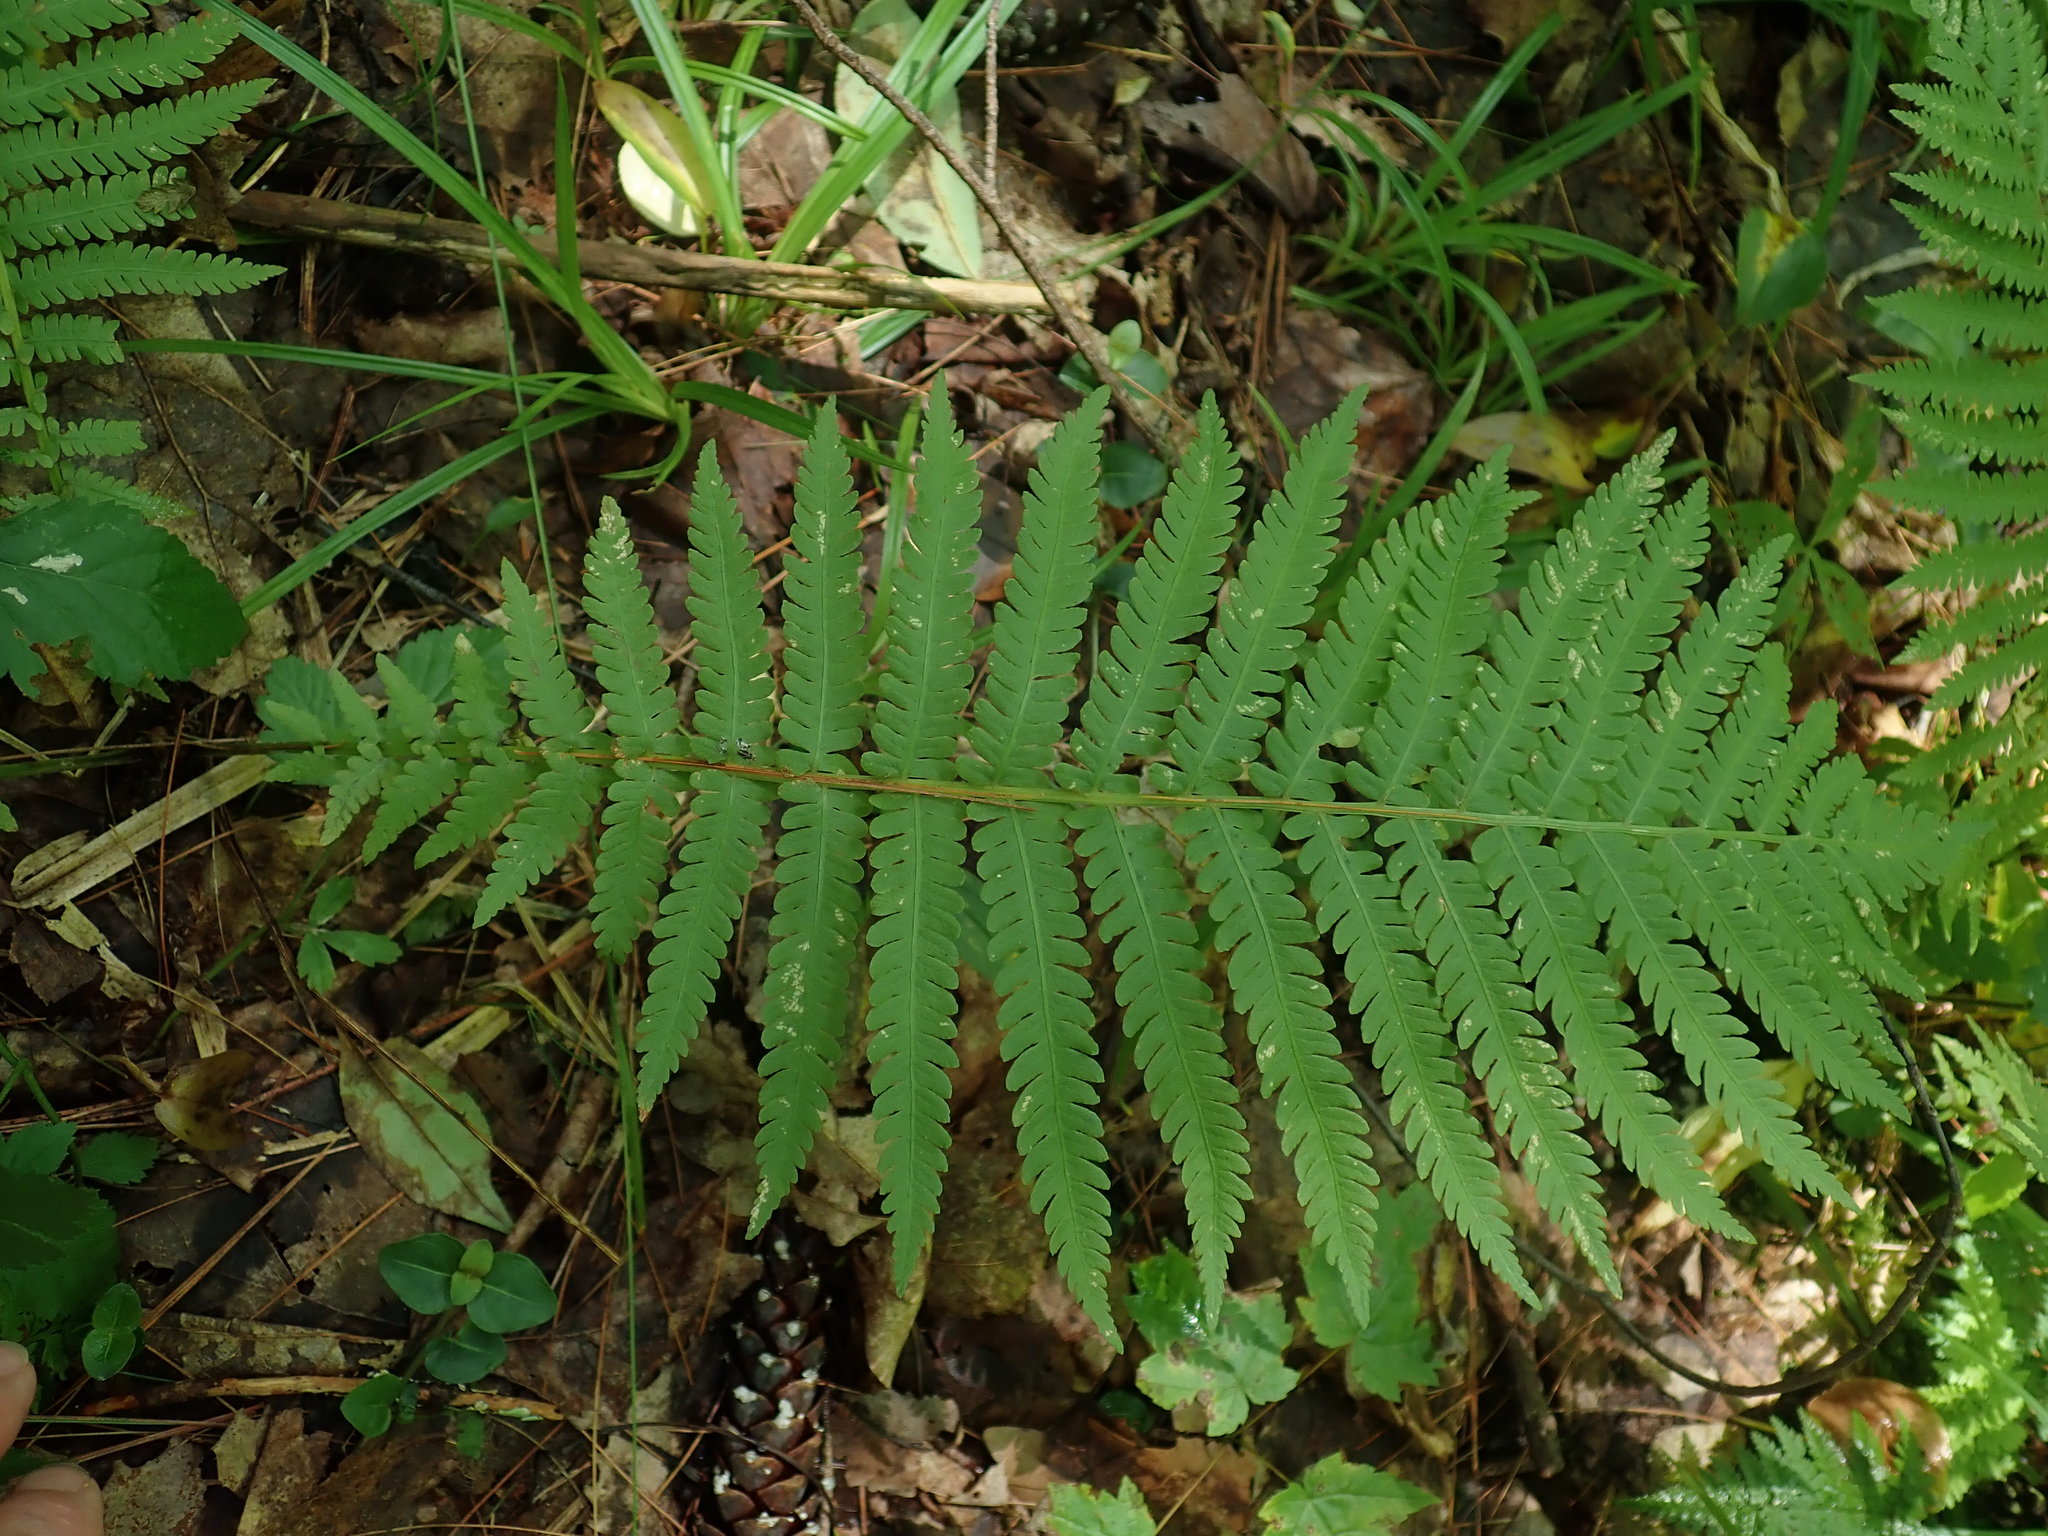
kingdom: Plantae
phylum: Tracheophyta
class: Polypodiopsida
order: Polypodiales
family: Thelypteridaceae
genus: Amauropelta
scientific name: Amauropelta noveboracensis
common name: New york fern
